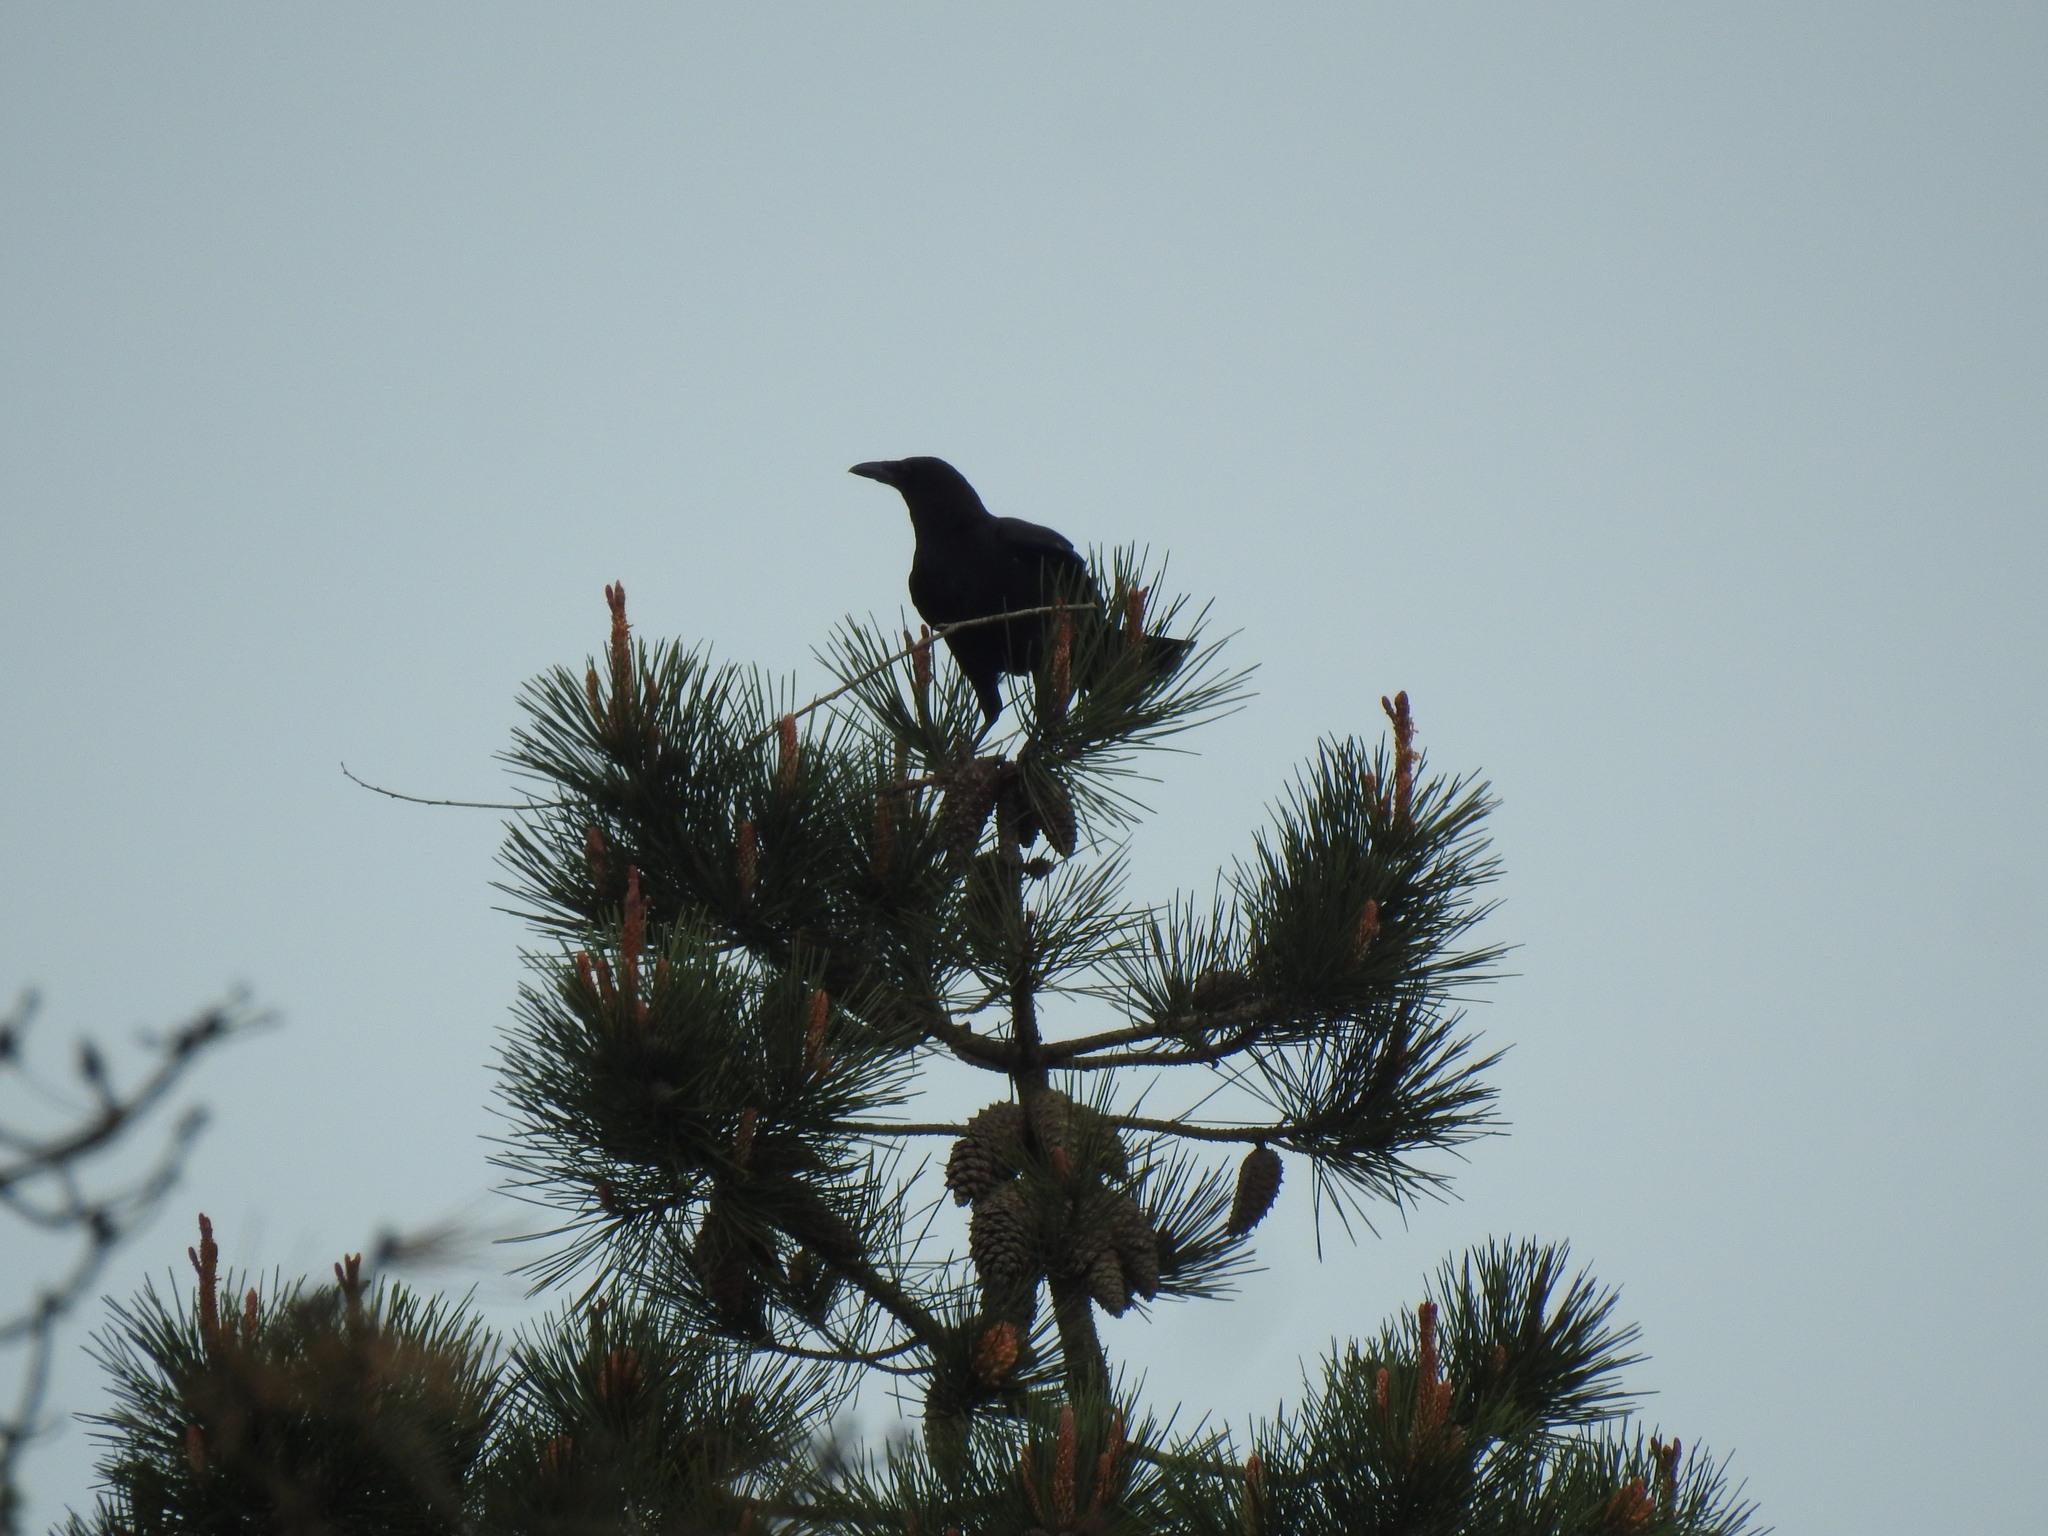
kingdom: Animalia
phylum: Chordata
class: Aves
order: Passeriformes
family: Corvidae
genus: Corvus
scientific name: Corvus corone
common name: Carrion crow
